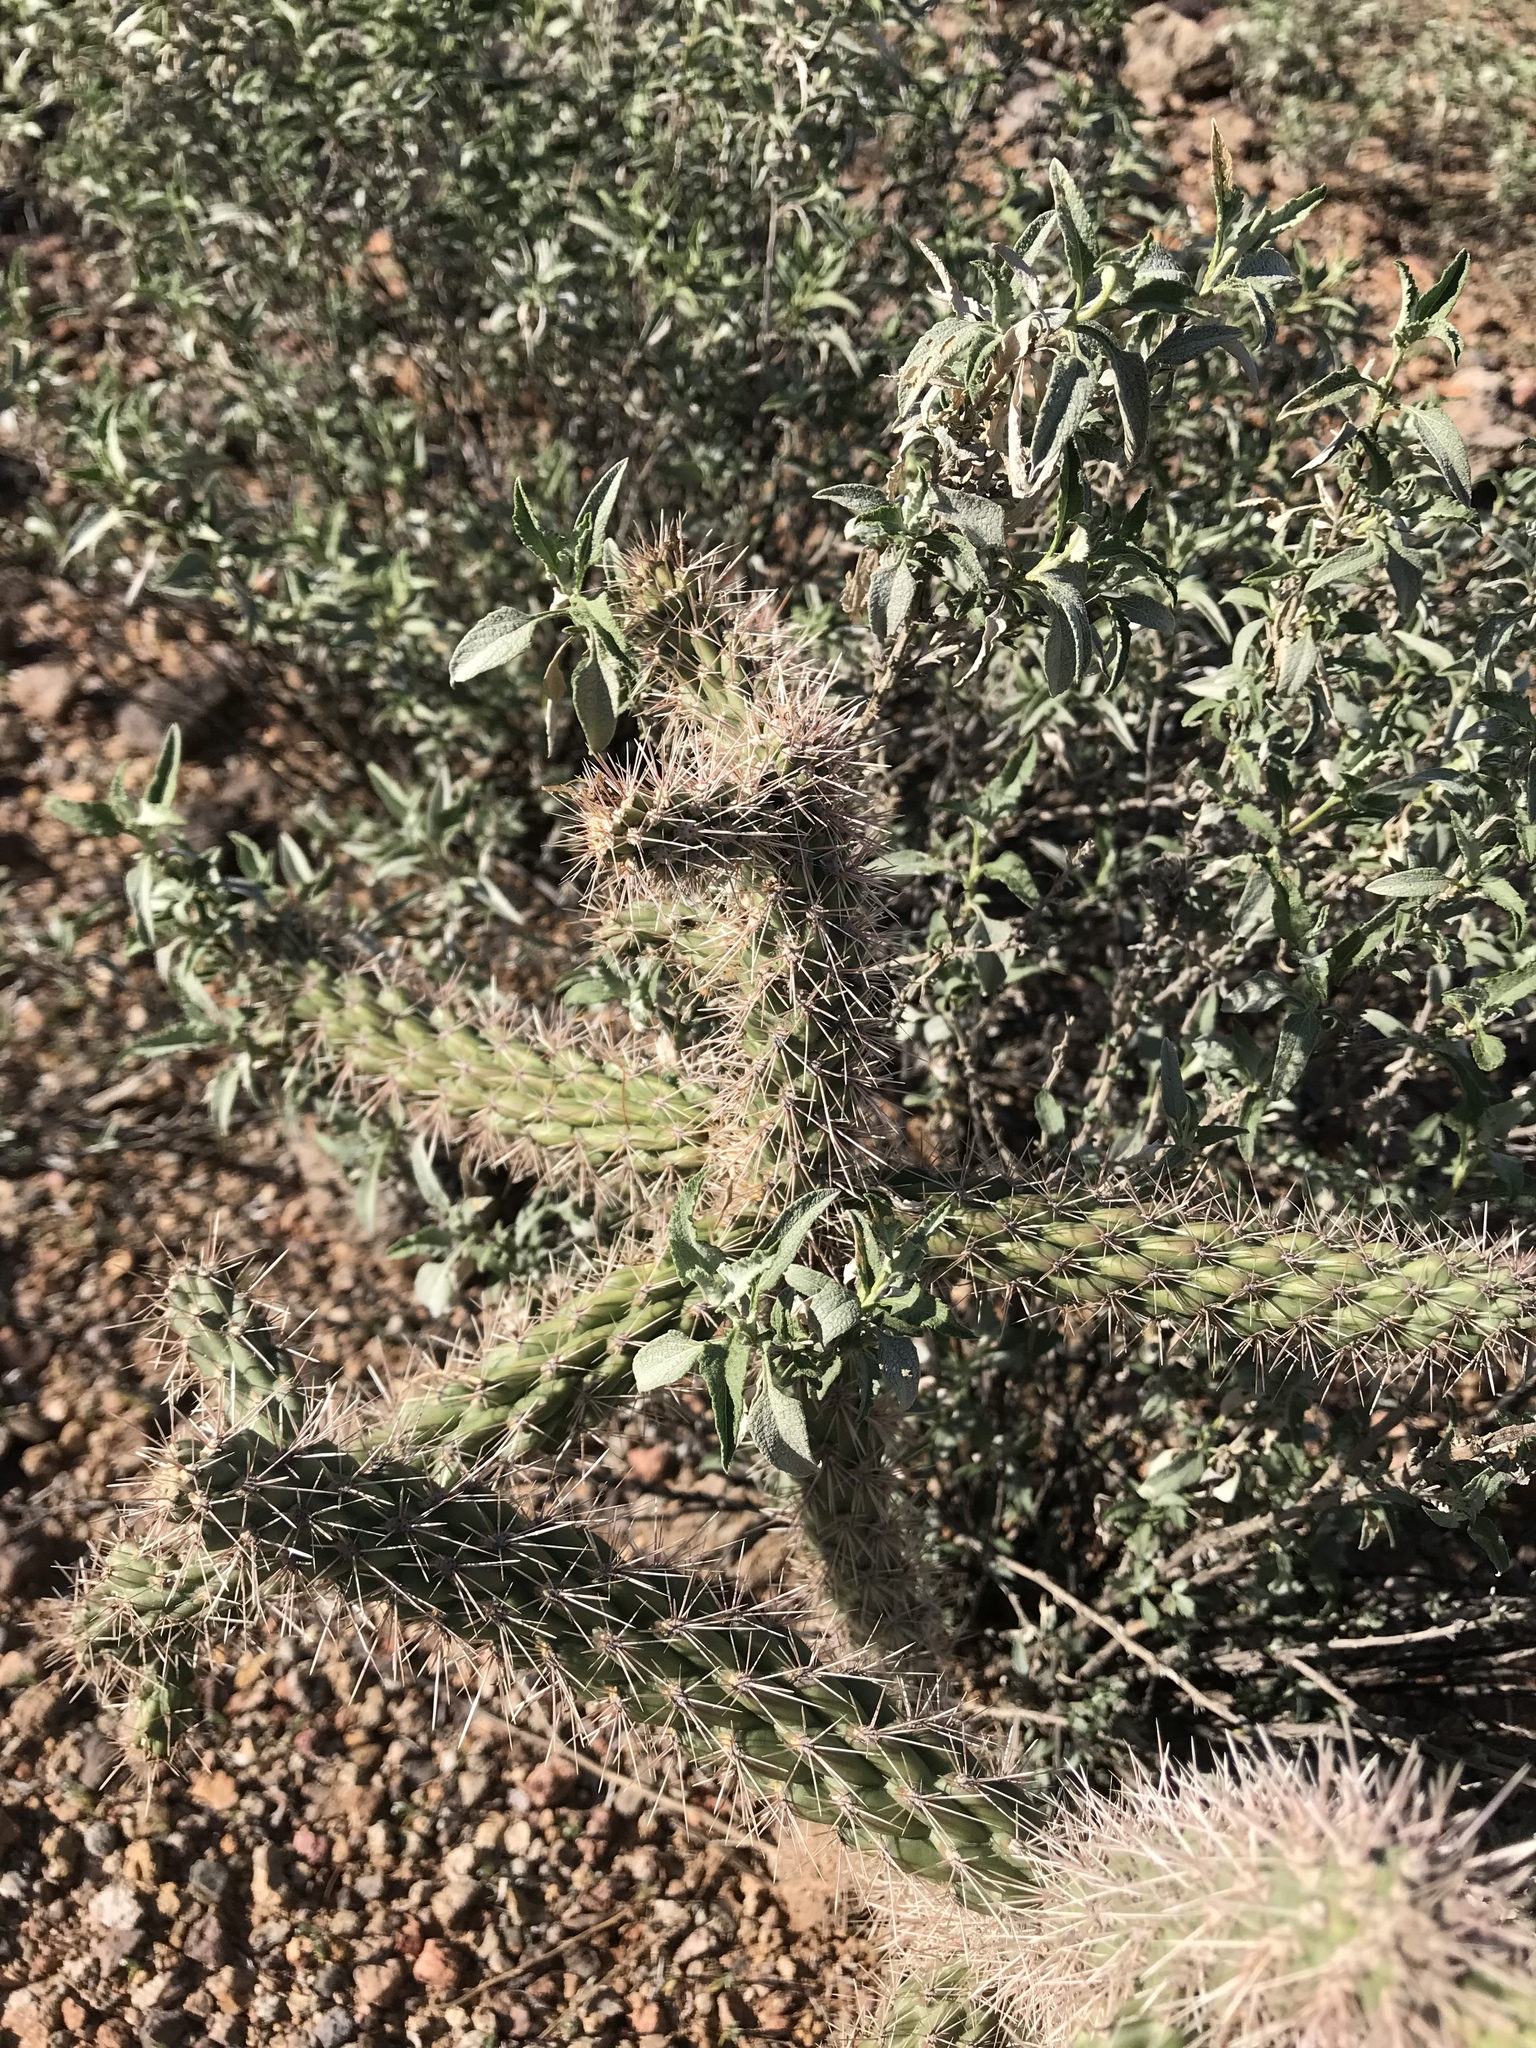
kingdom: Plantae
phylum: Tracheophyta
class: Magnoliopsida
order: Caryophyllales
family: Cactaceae
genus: Cylindropuntia
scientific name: Cylindropuntia imbricata
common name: Candelabrum cactus
